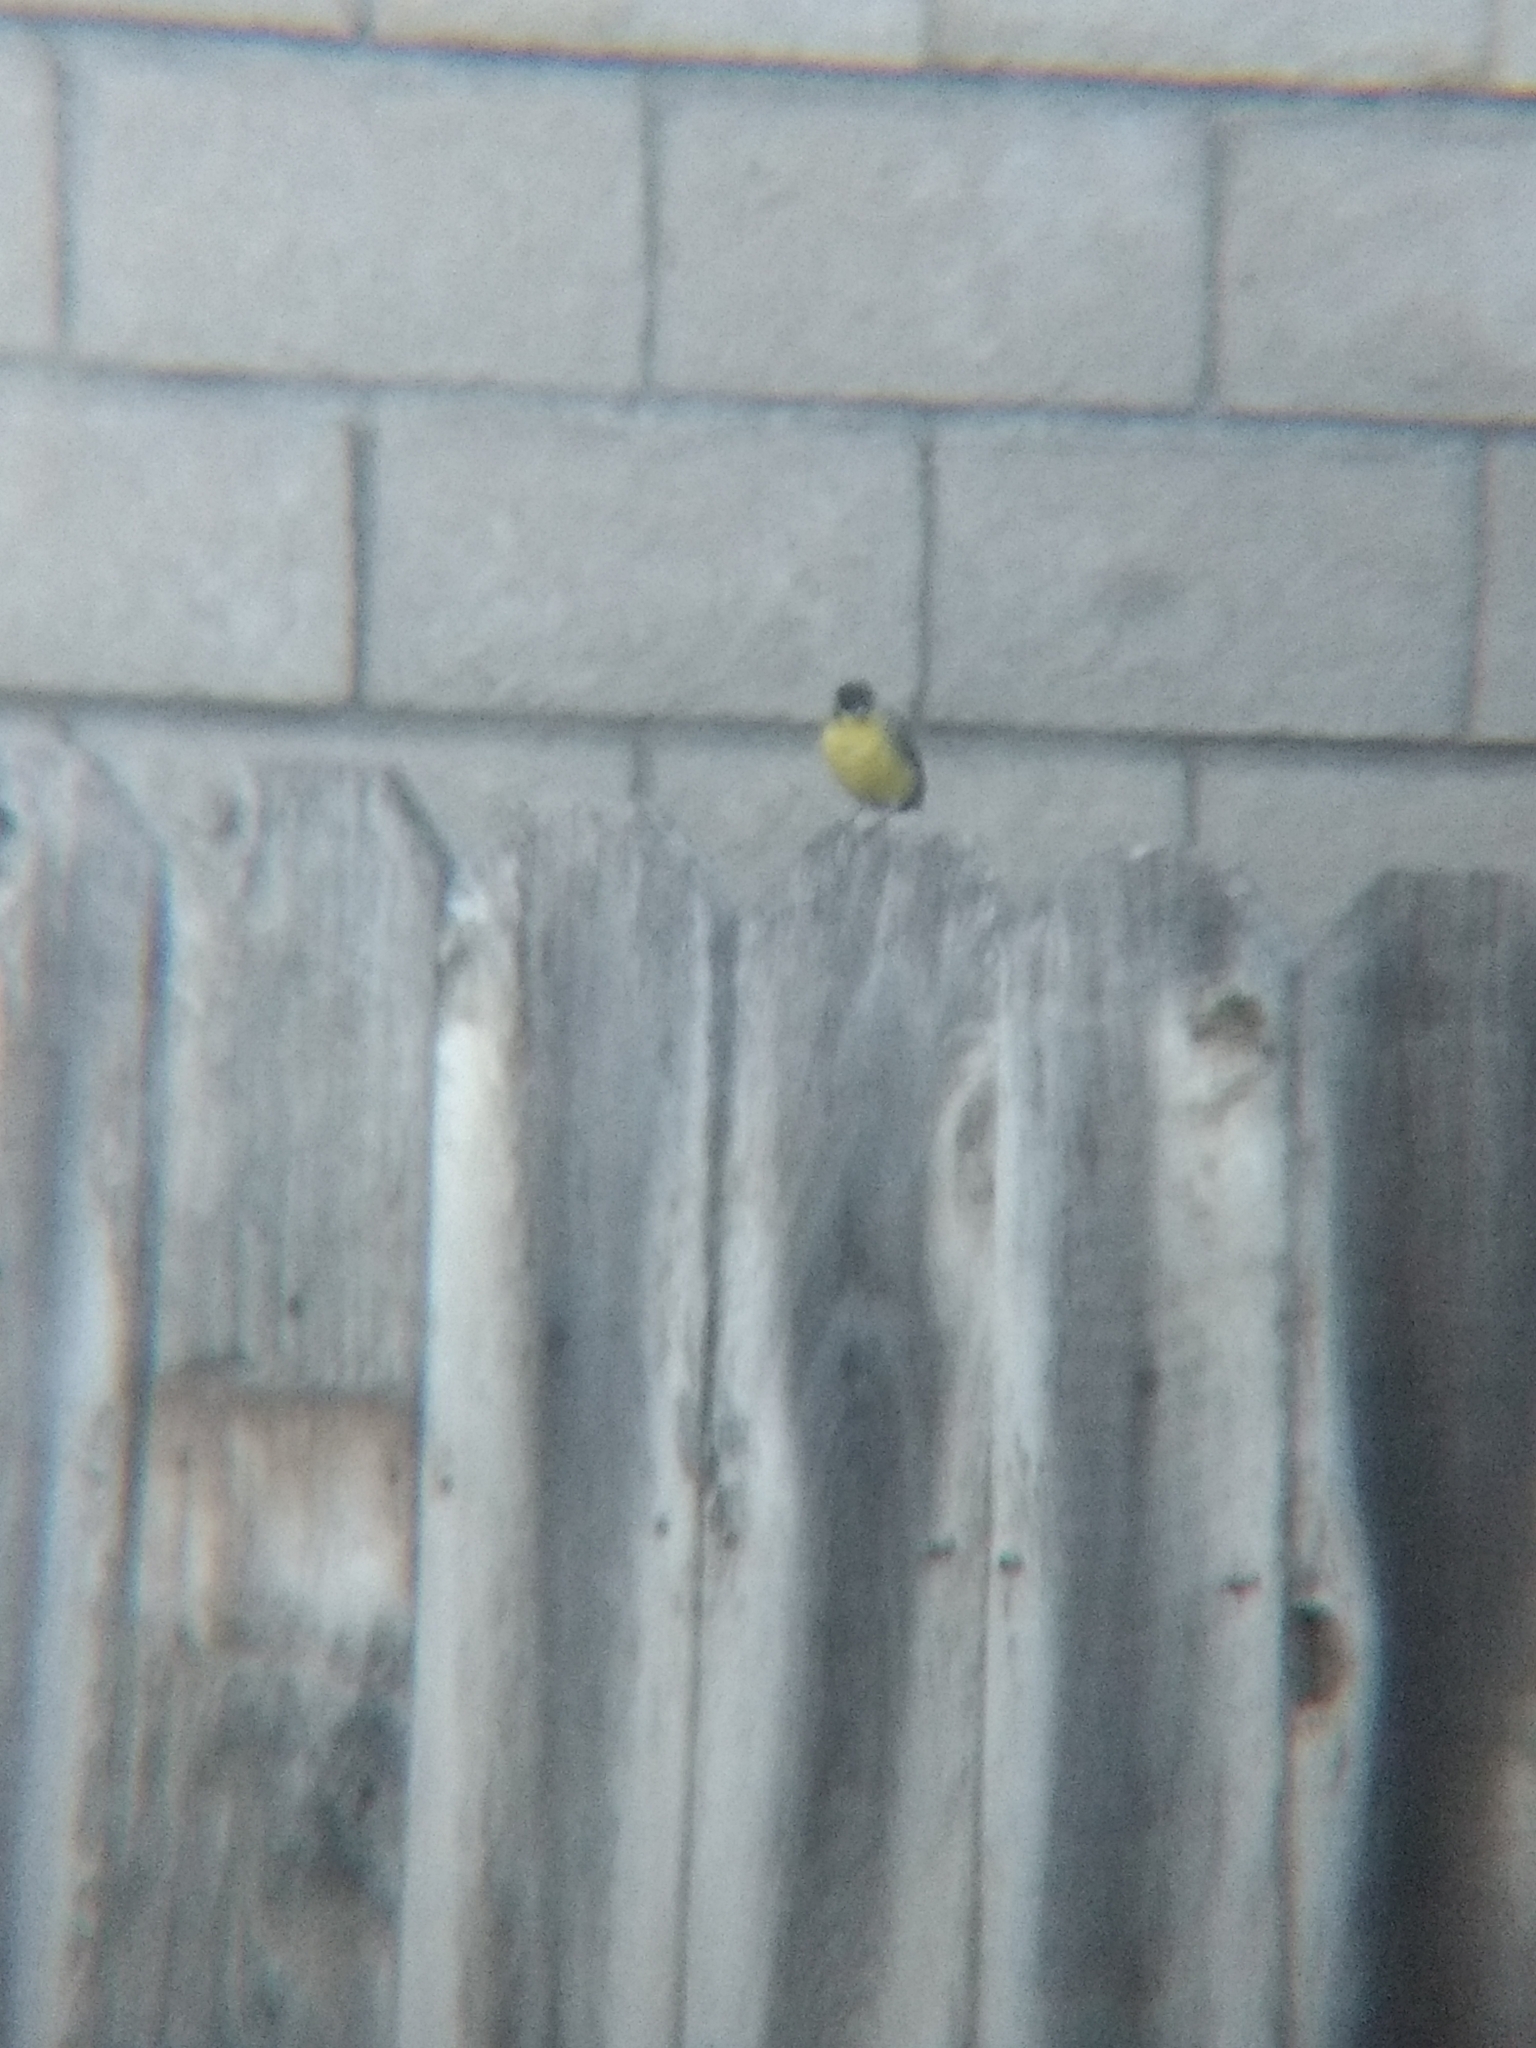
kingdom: Animalia
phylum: Chordata
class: Aves
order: Passeriformes
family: Fringillidae
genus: Spinus
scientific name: Spinus psaltria
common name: Lesser goldfinch
